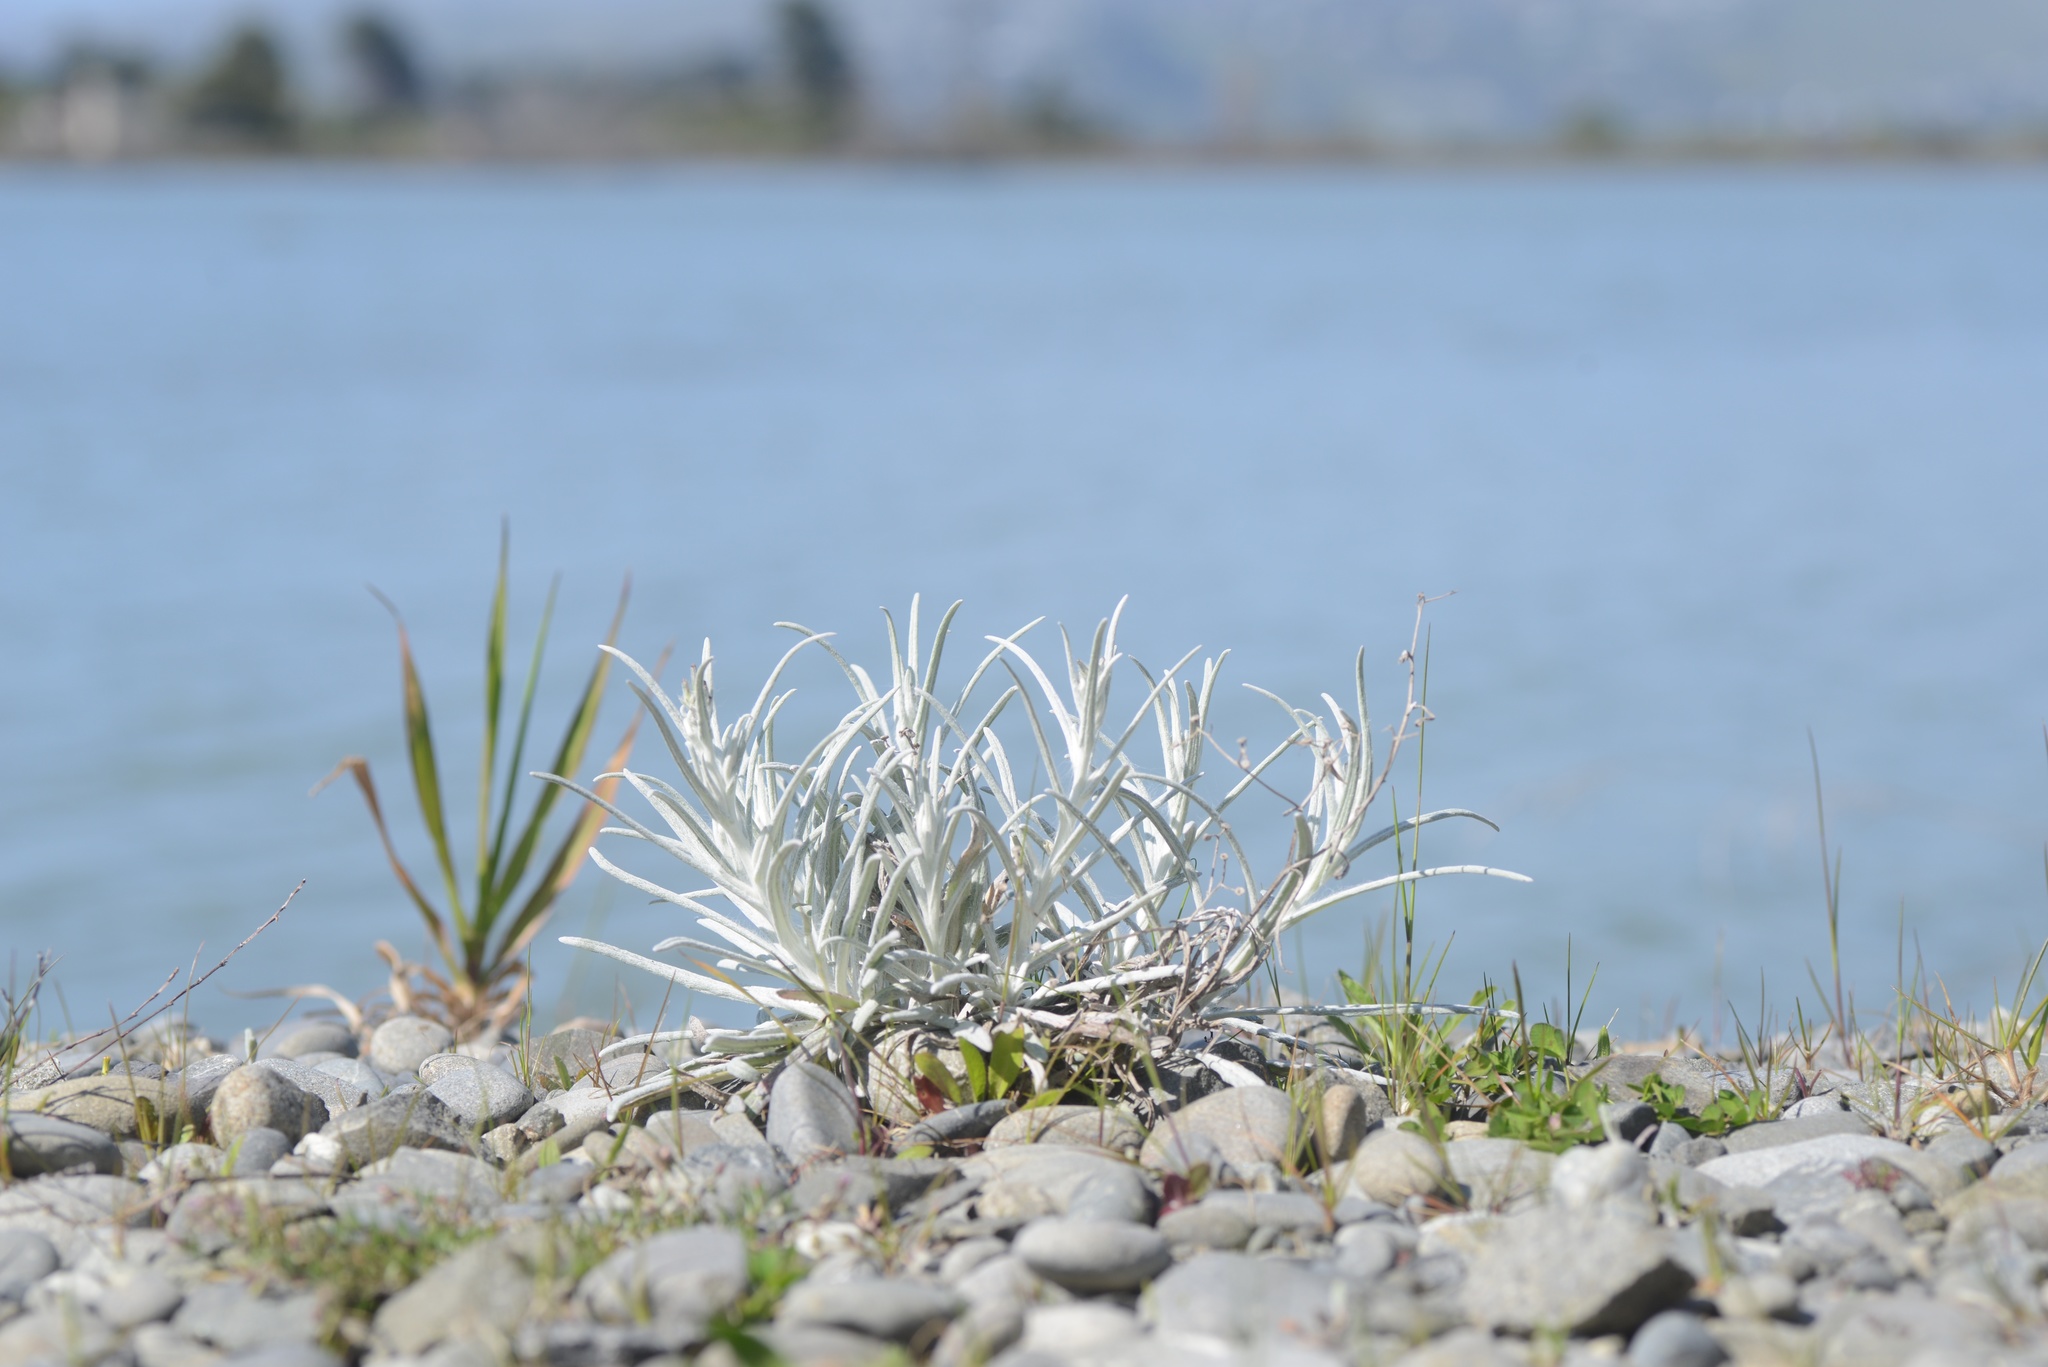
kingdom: Plantae
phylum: Tracheophyta
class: Magnoliopsida
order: Asterales
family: Asteraceae
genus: Senecio
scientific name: Senecio quadridentatus
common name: Cotton fireweed
